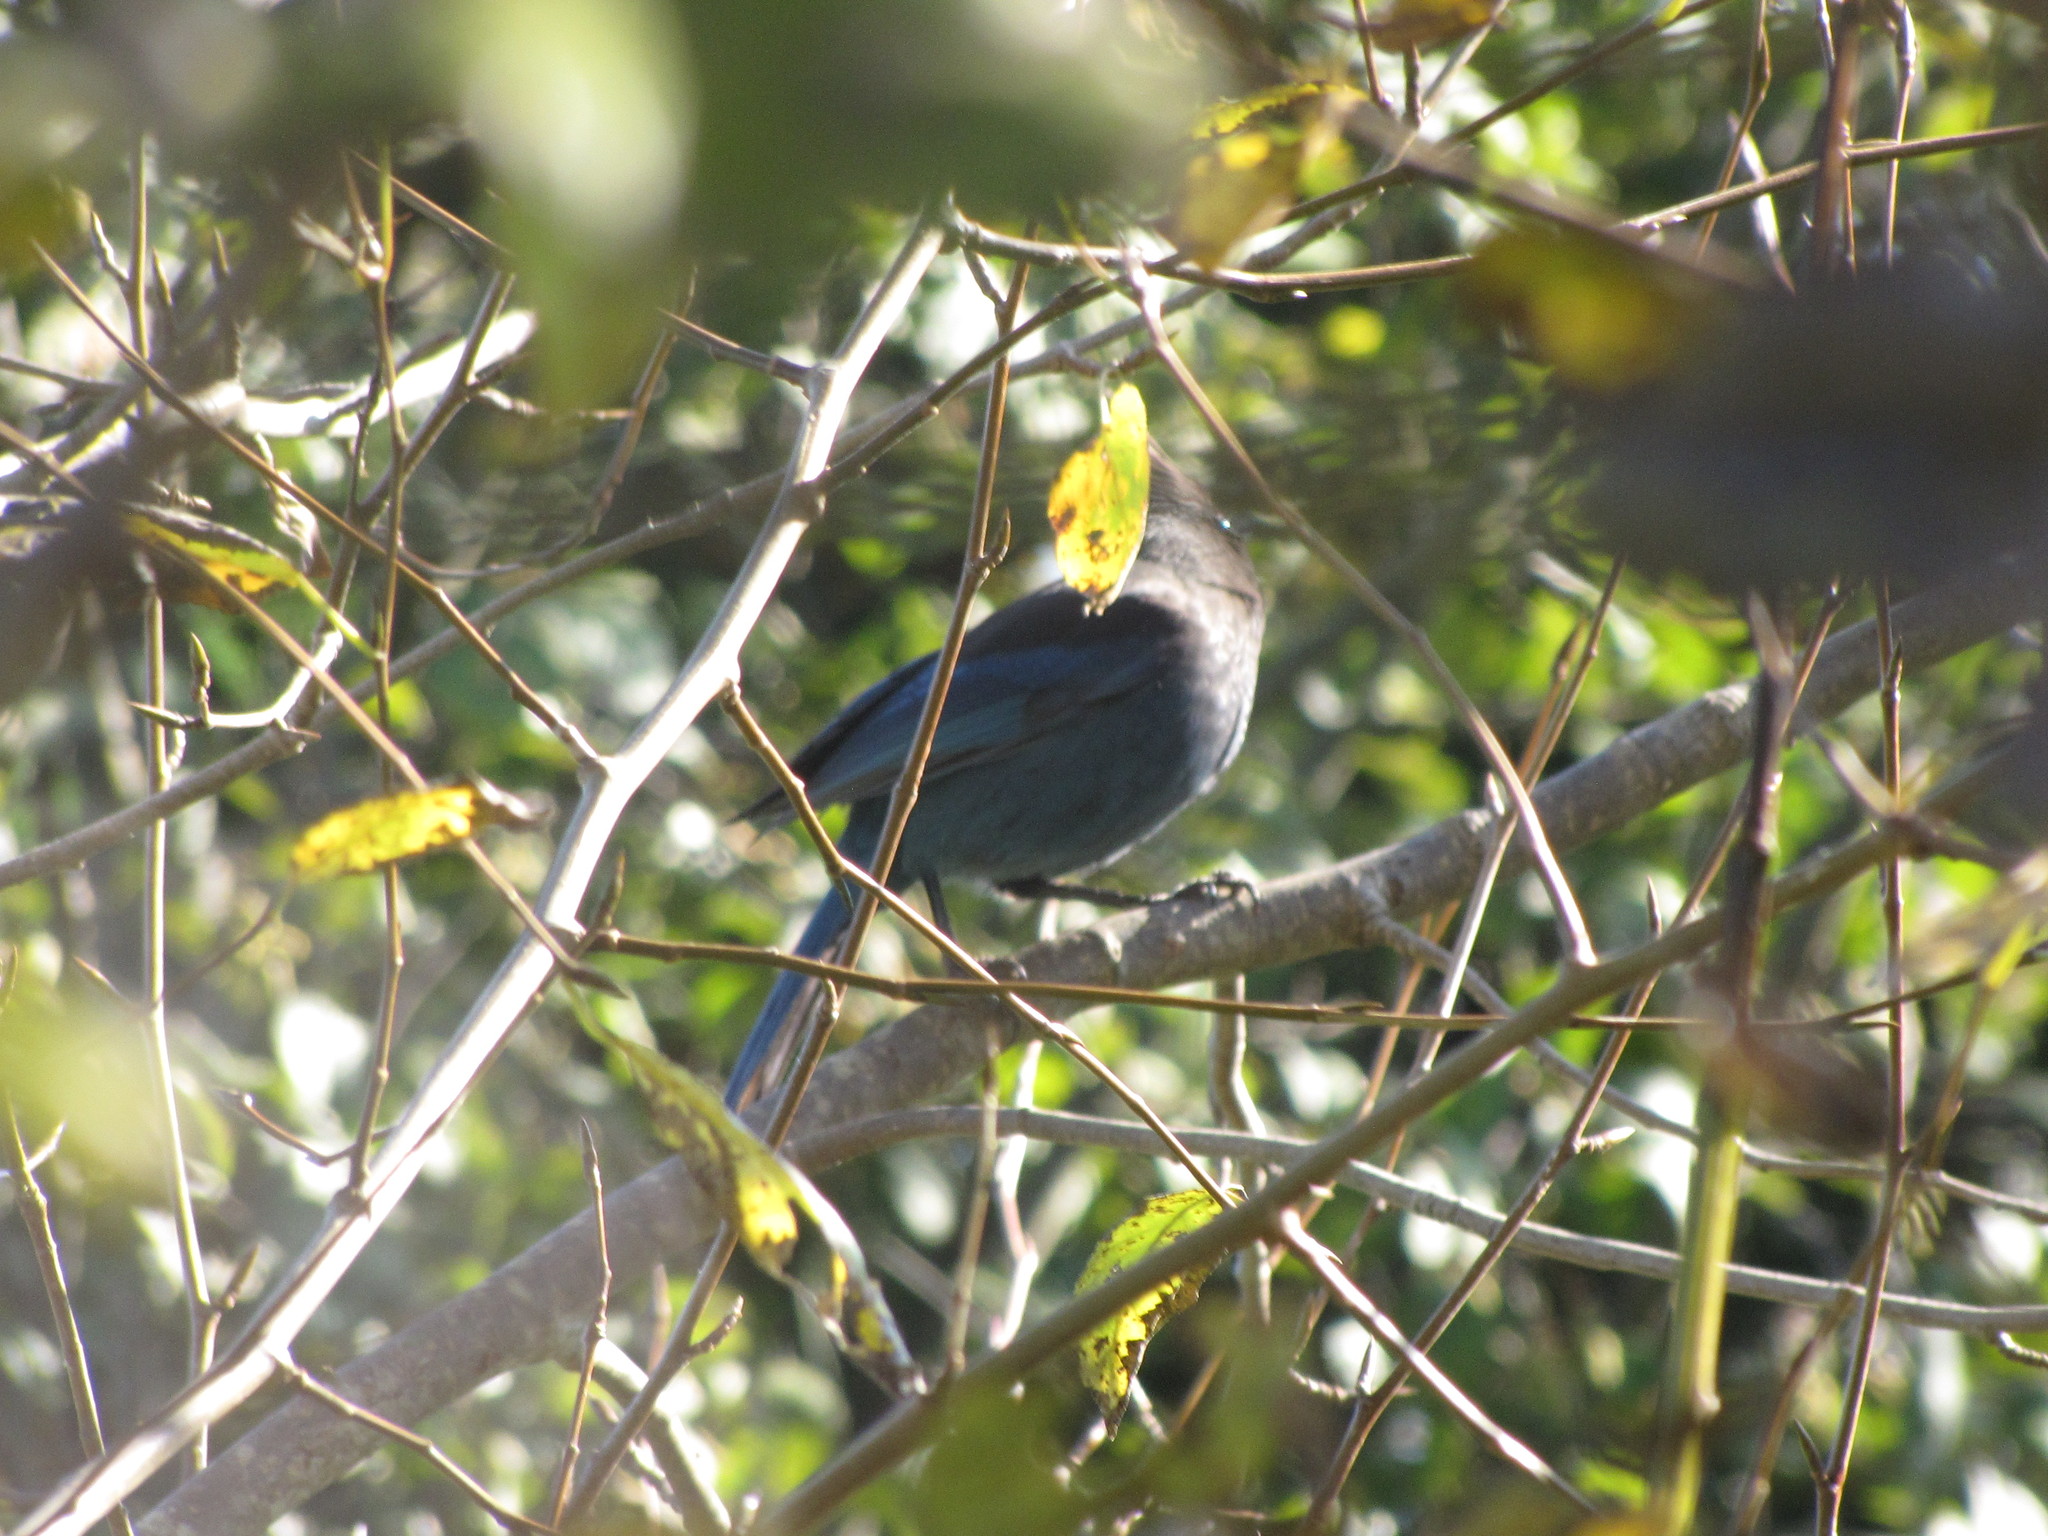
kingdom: Animalia
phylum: Chordata
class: Aves
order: Passeriformes
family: Corvidae
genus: Cyanocitta
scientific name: Cyanocitta stelleri
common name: Steller's jay
